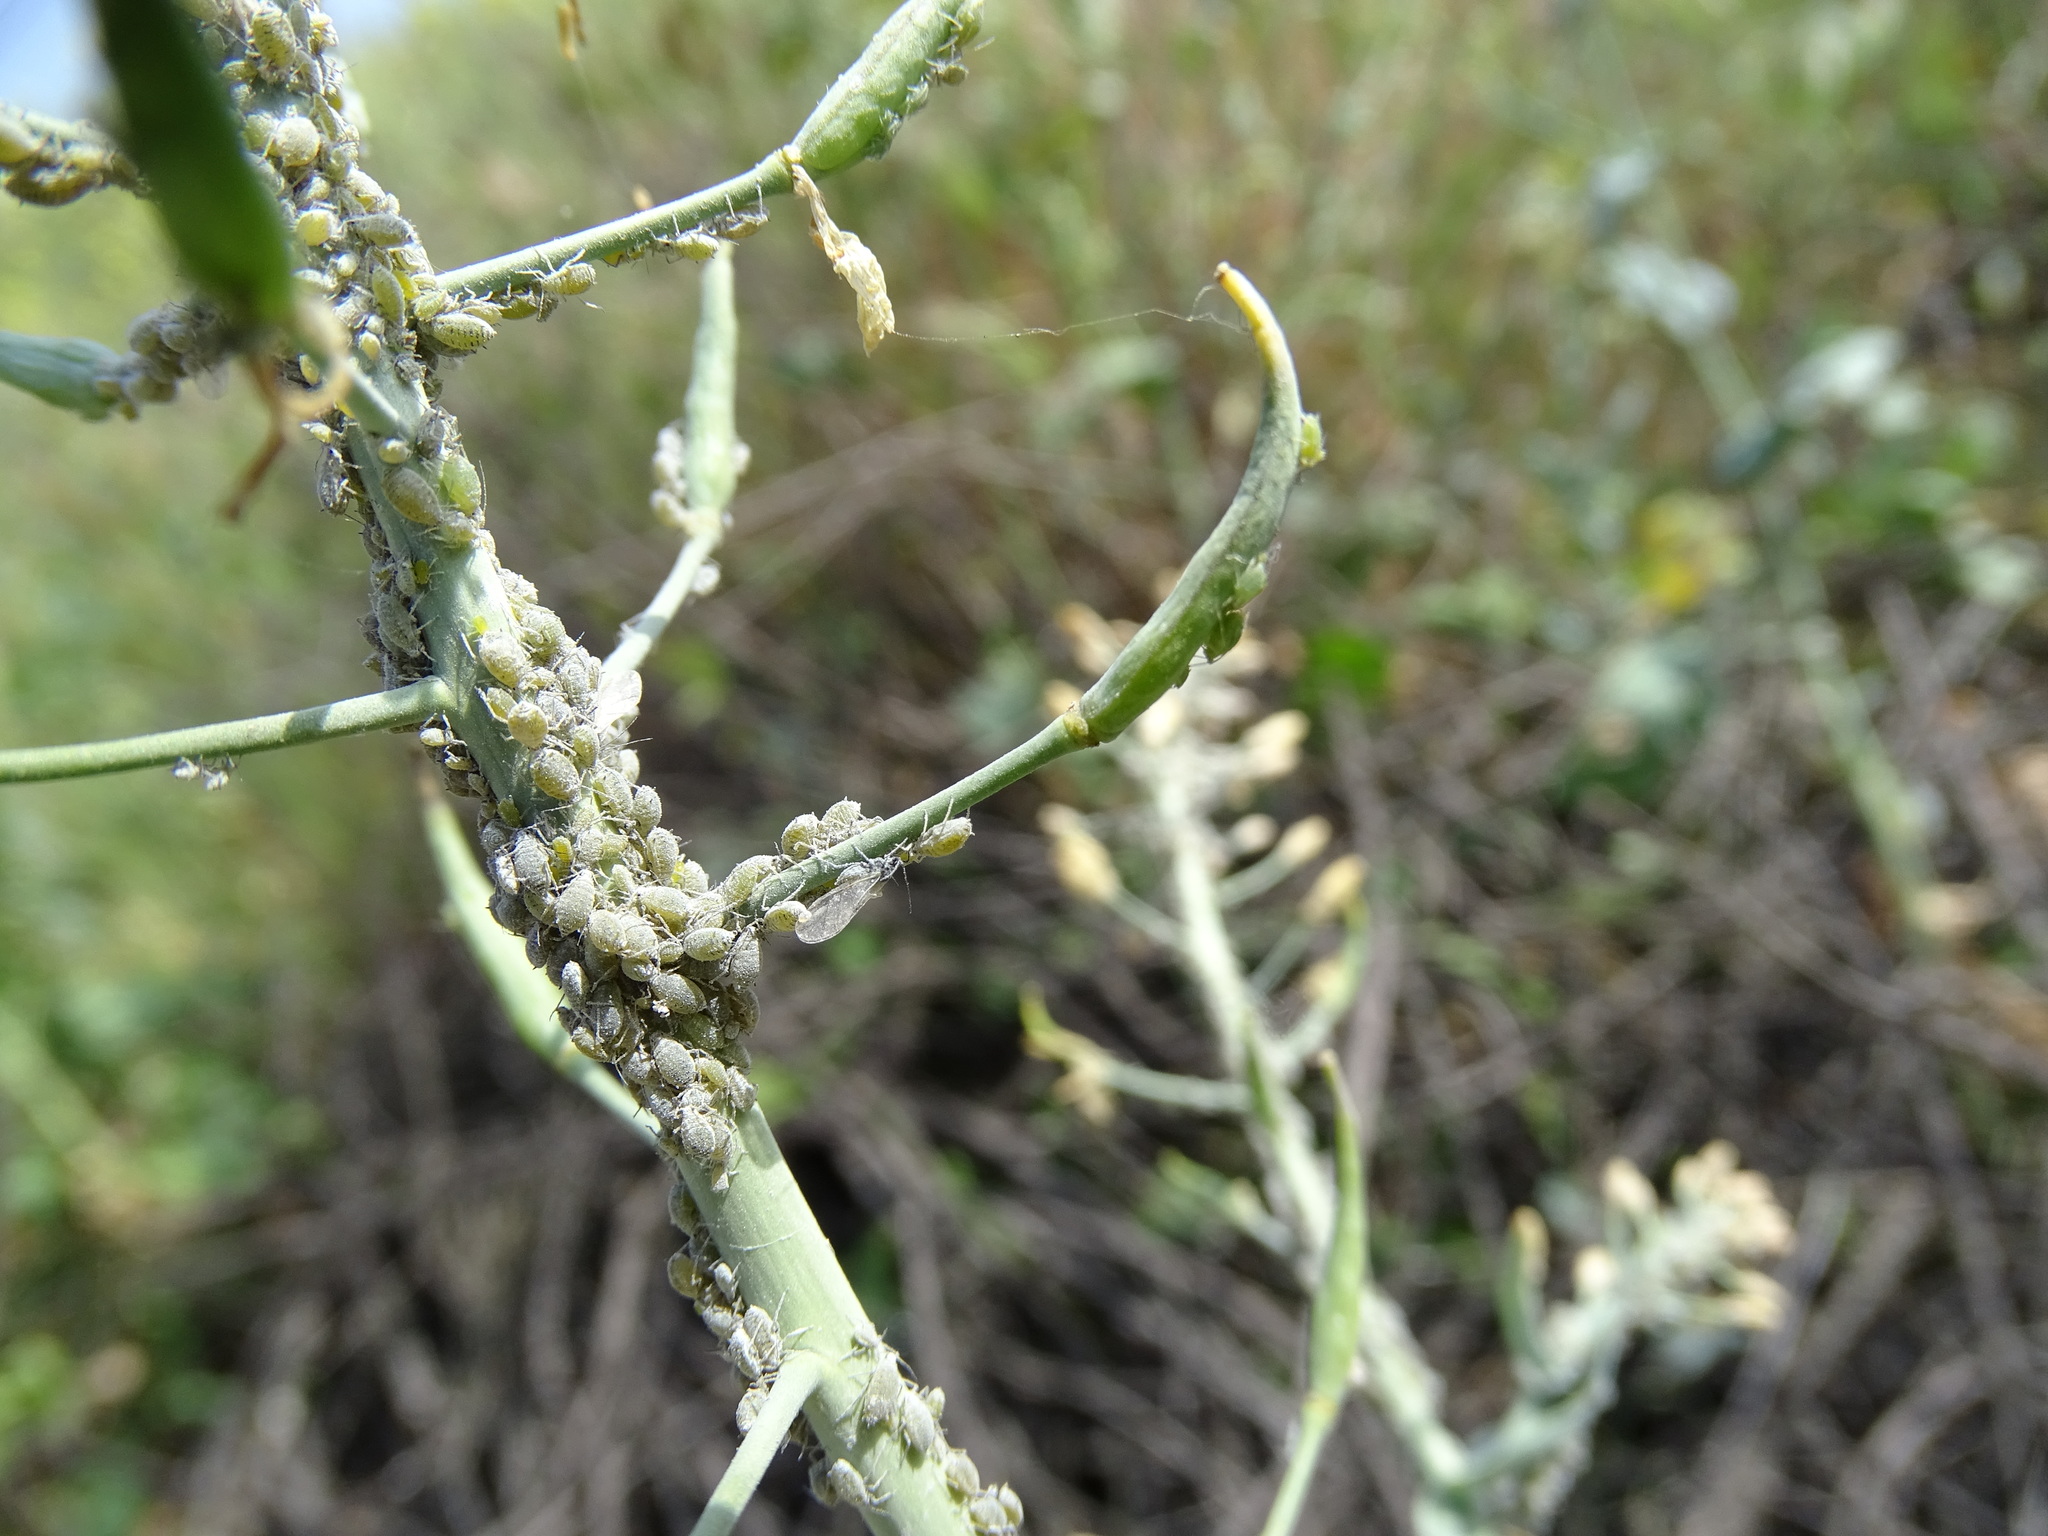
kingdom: Animalia
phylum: Arthropoda
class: Insecta
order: Hemiptera
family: Aphididae
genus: Brevicoryne
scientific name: Brevicoryne brassicae
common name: Cabbage aphid
